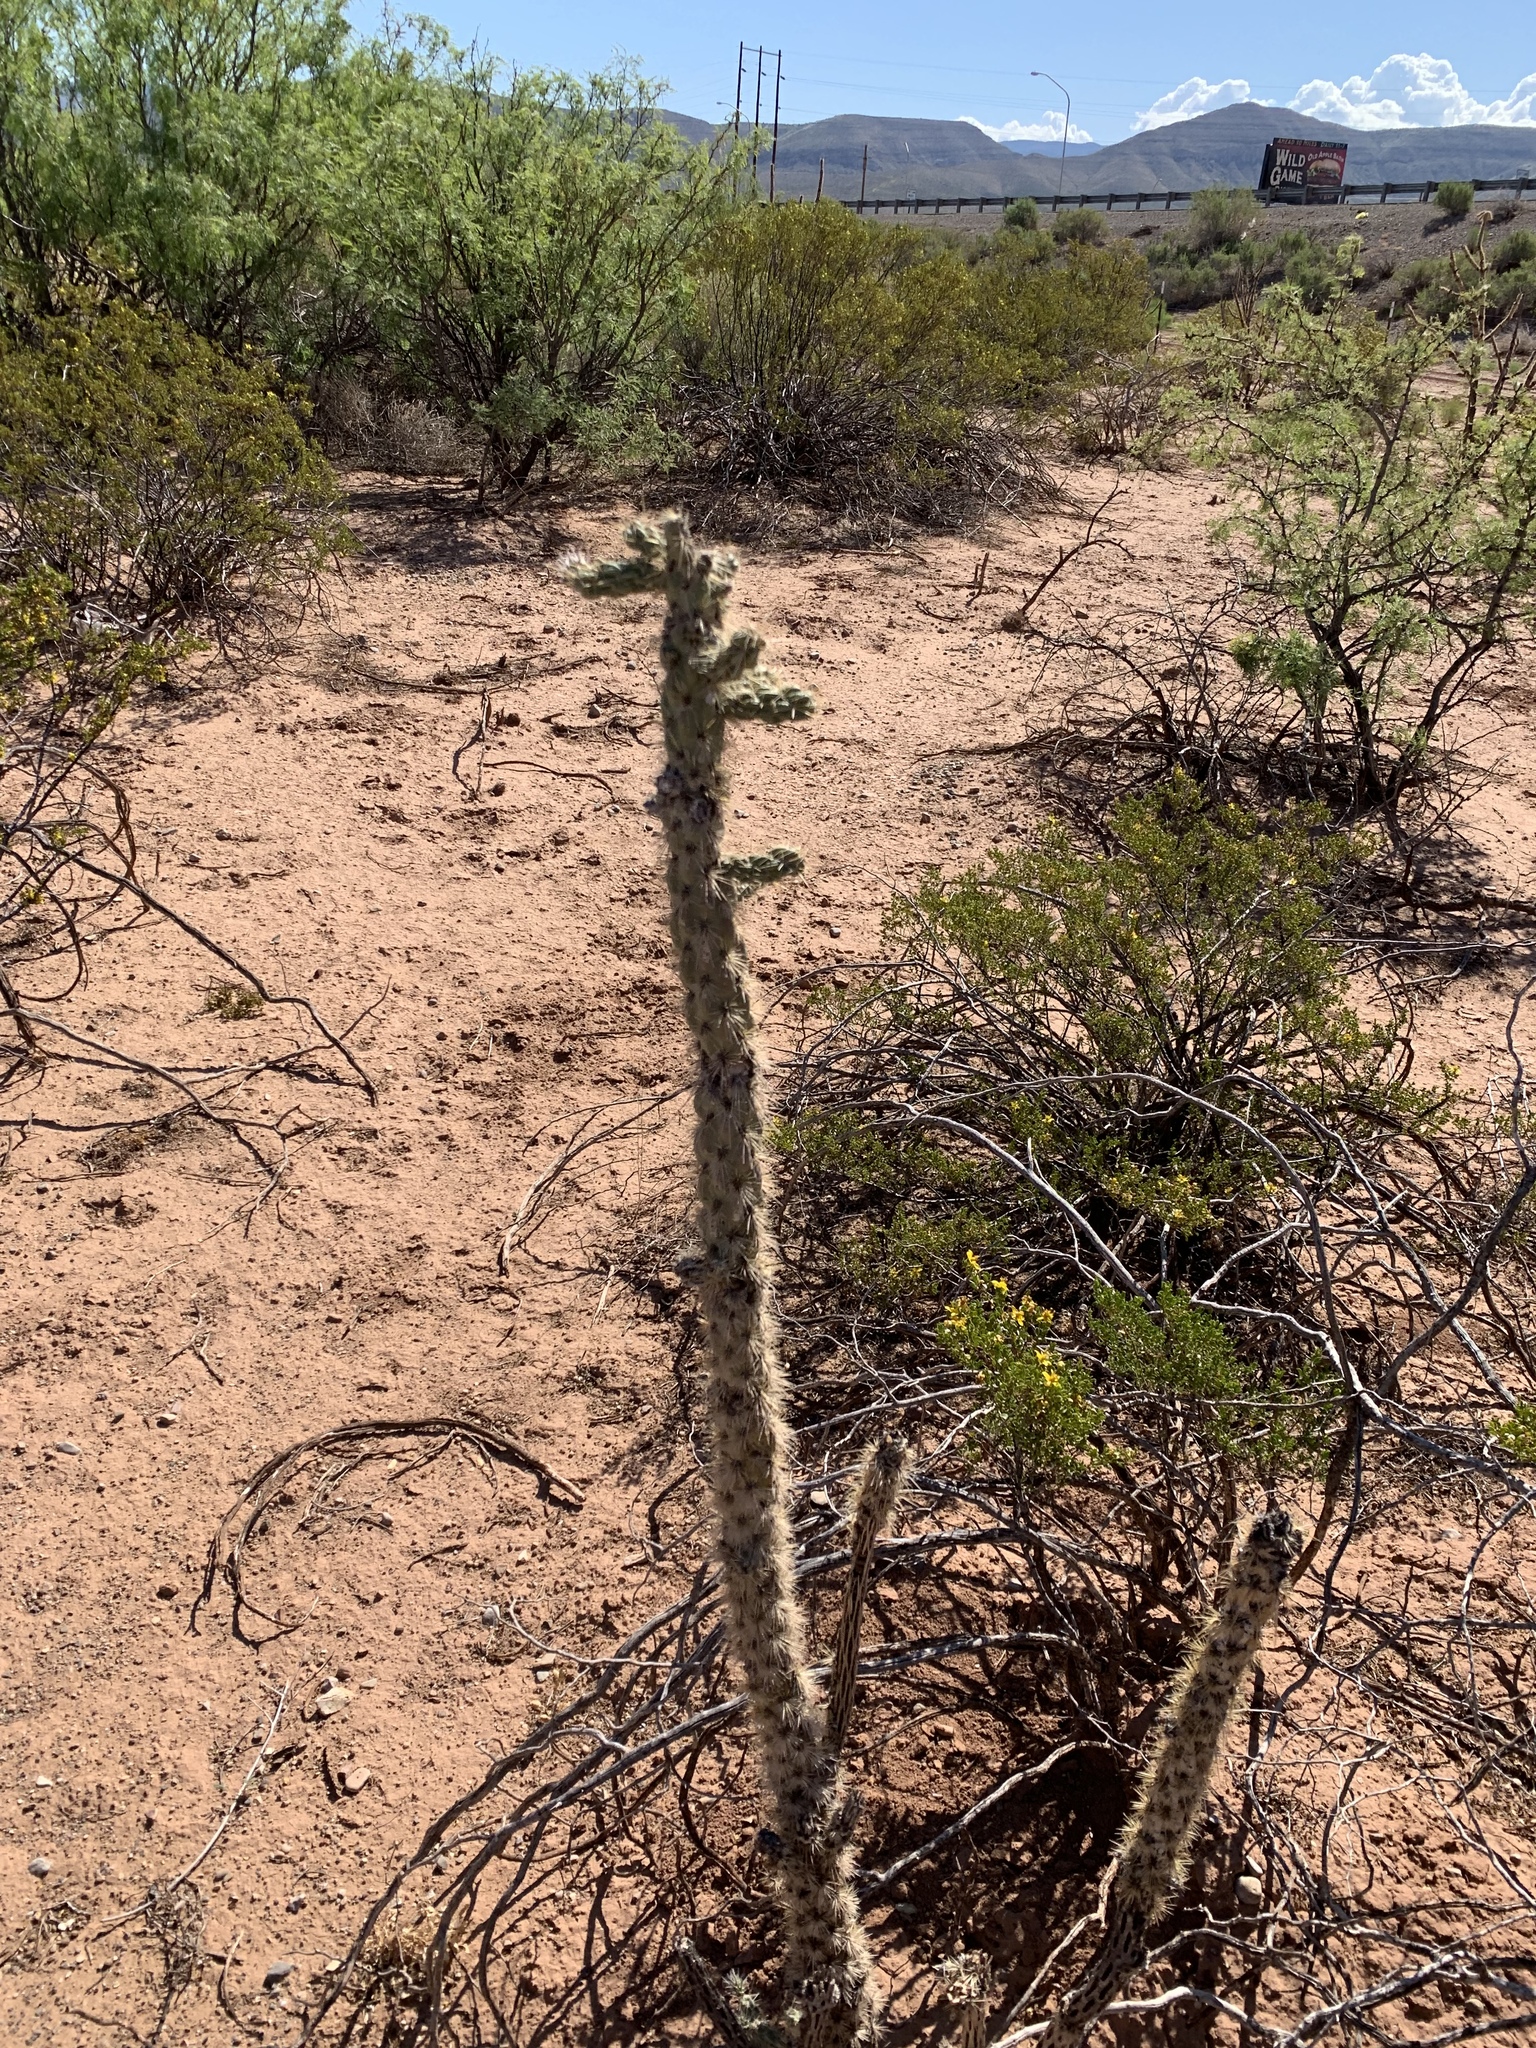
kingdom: Plantae
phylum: Tracheophyta
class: Magnoliopsida
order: Caryophyllales
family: Cactaceae
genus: Cylindropuntia
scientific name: Cylindropuntia imbricata
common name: Candelabrum cactus
